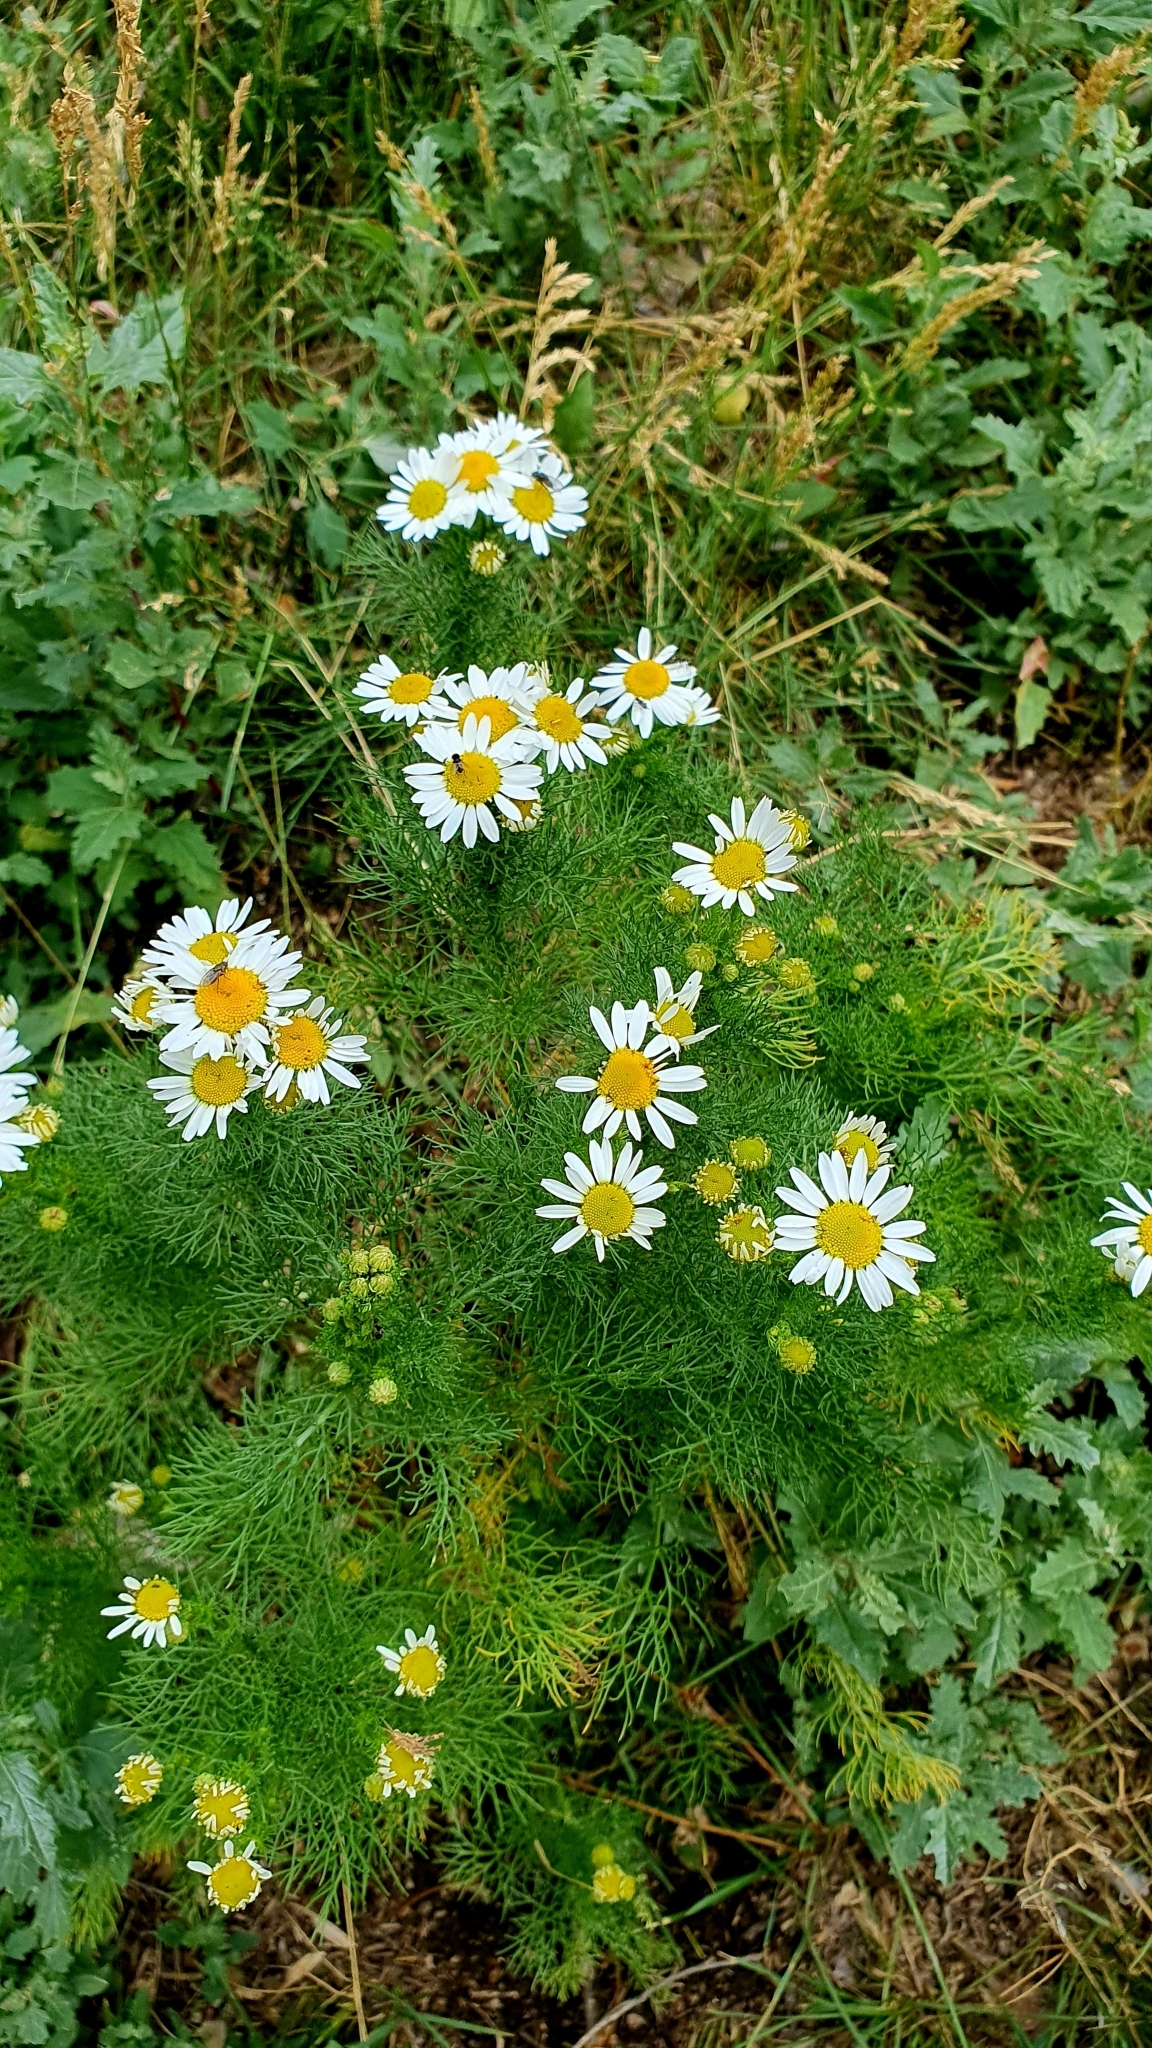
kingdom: Plantae
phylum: Tracheophyta
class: Magnoliopsida
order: Asterales
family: Asteraceae
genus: Tripleurospermum
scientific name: Tripleurospermum inodorum
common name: Scentless mayweed
